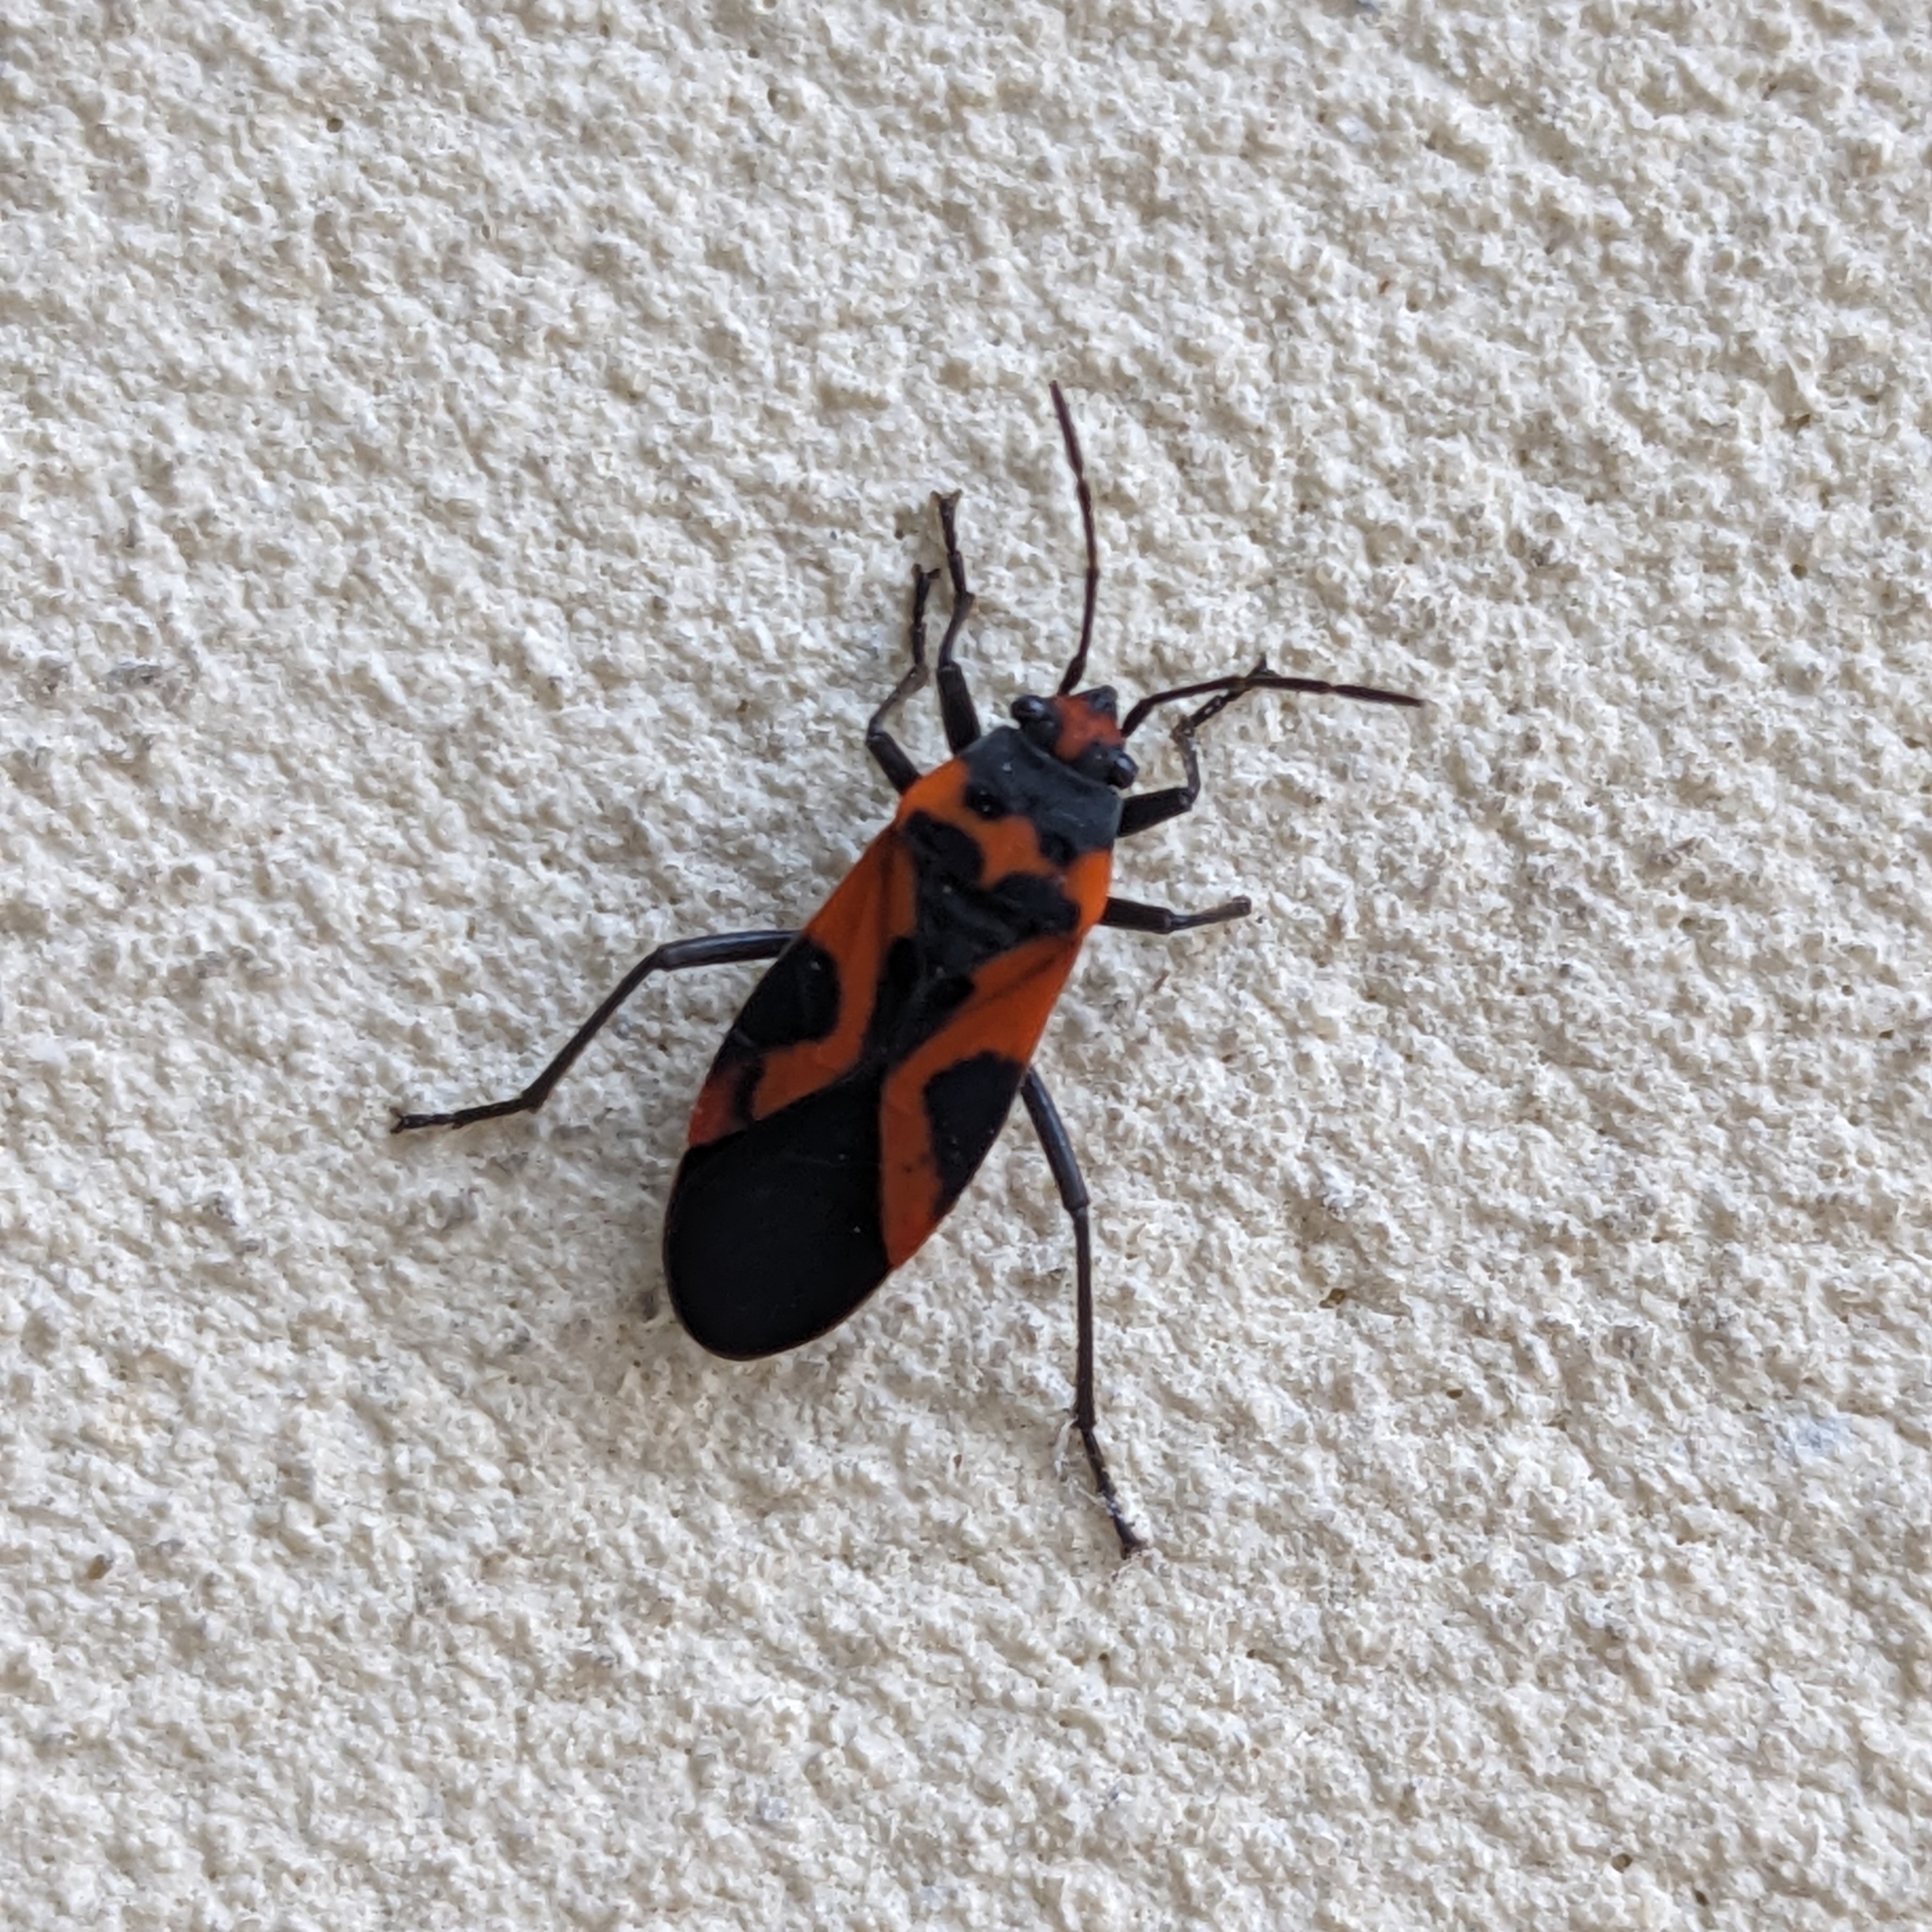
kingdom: Animalia
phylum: Arthropoda
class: Insecta
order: Hemiptera
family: Lygaeidae
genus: Lygaeus
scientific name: Lygaeus turcicus
